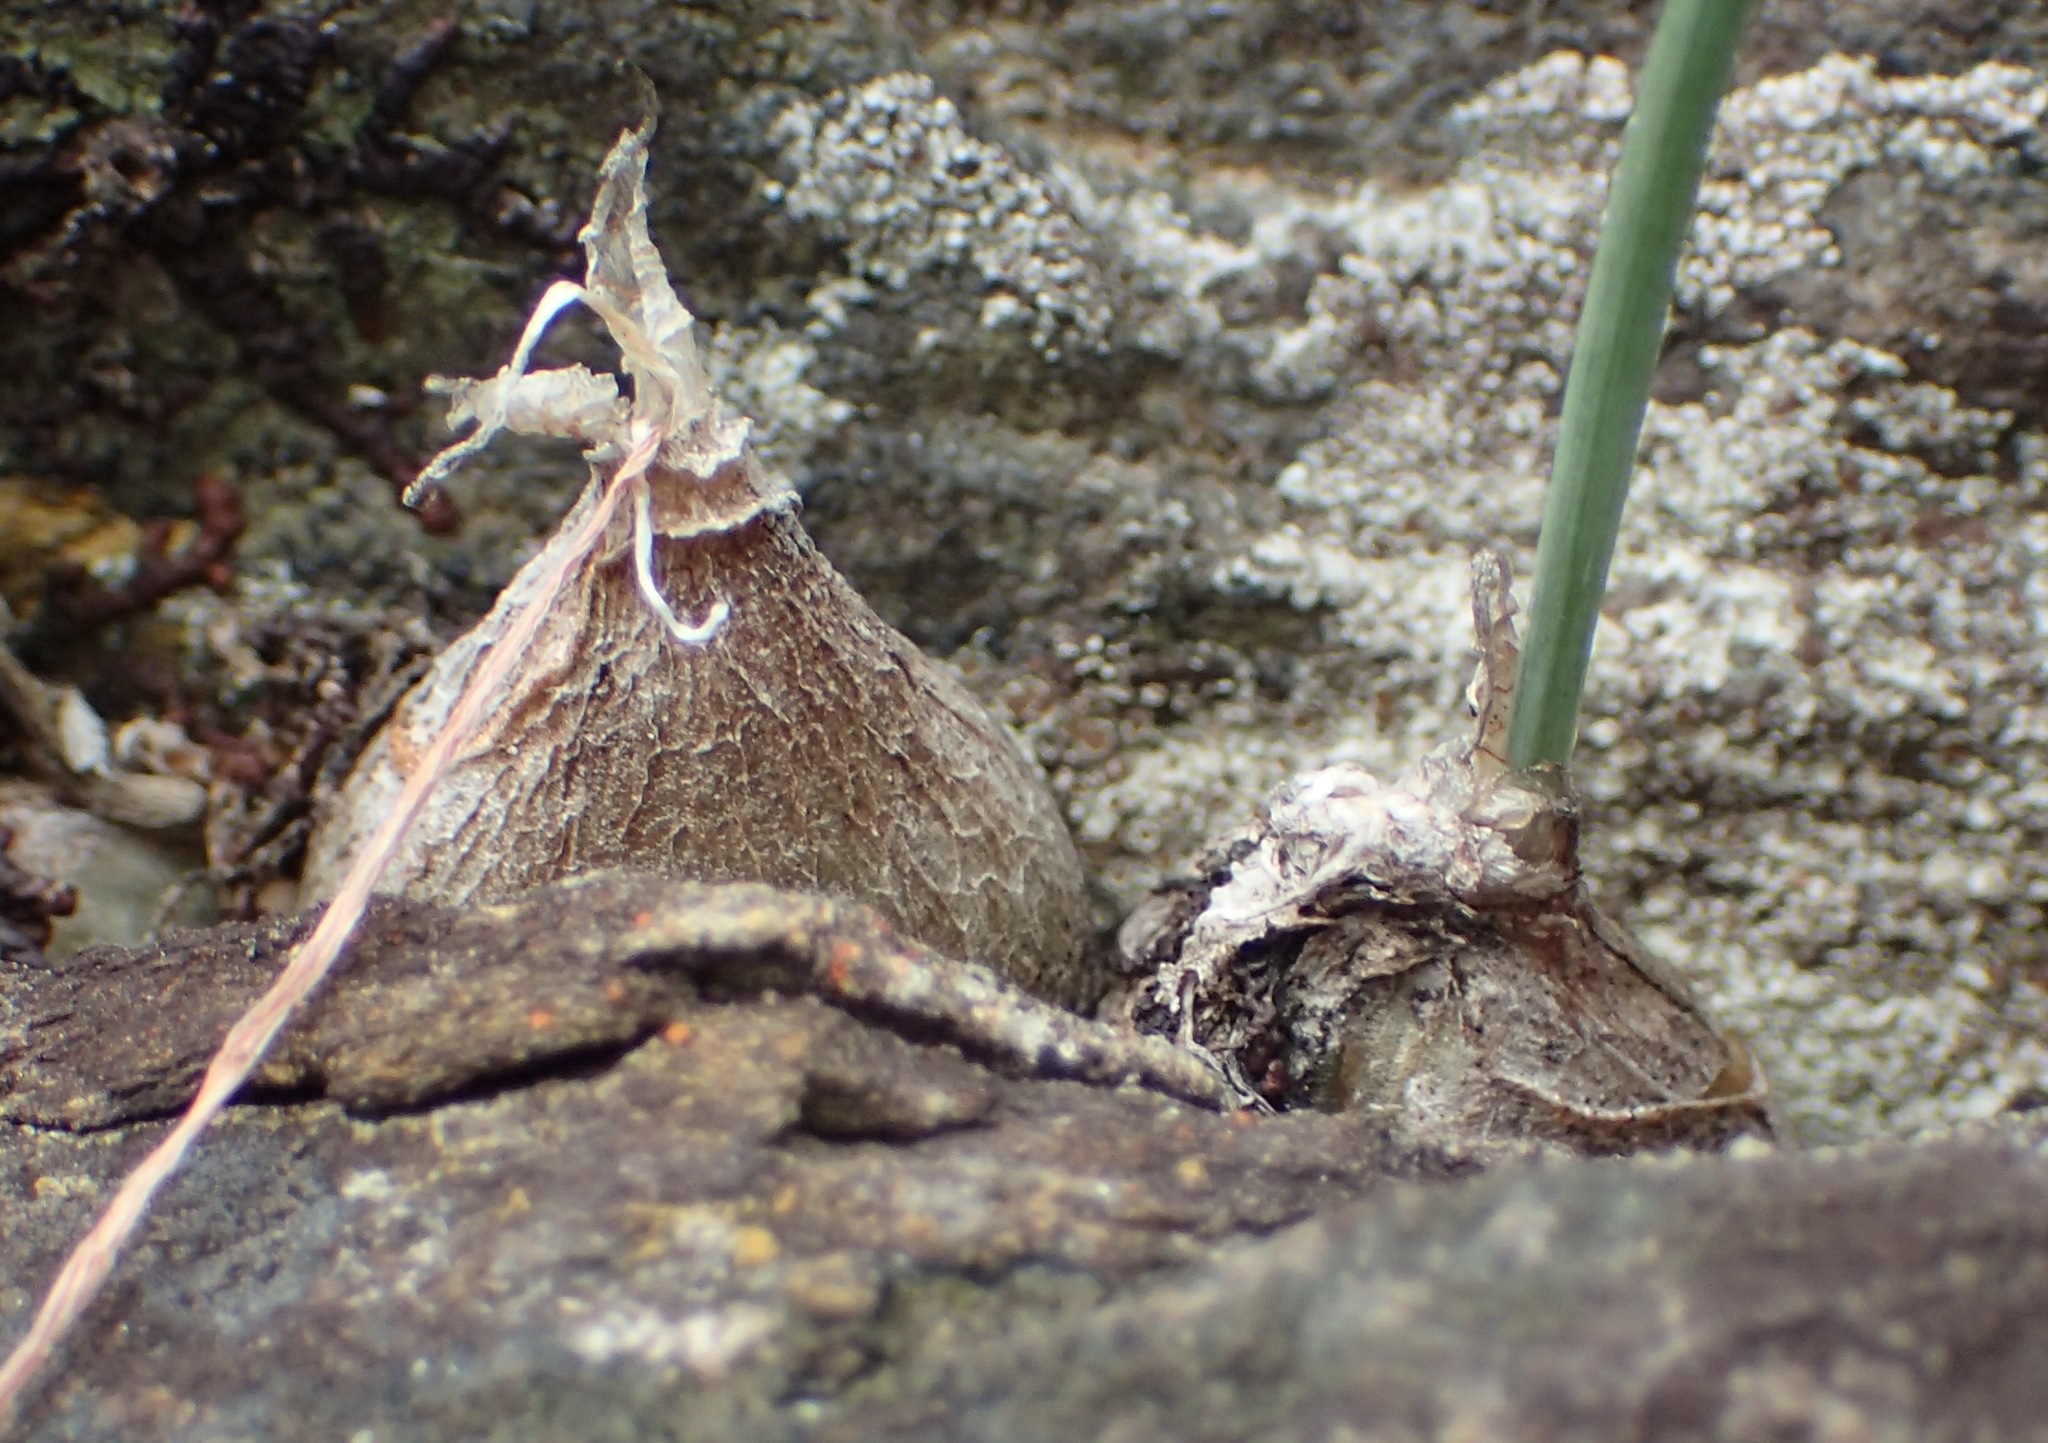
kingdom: Plantae
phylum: Tracheophyta
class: Liliopsida
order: Asparagales
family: Asparagaceae
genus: Drimia
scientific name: Drimia uniflora
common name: Fairy bell
